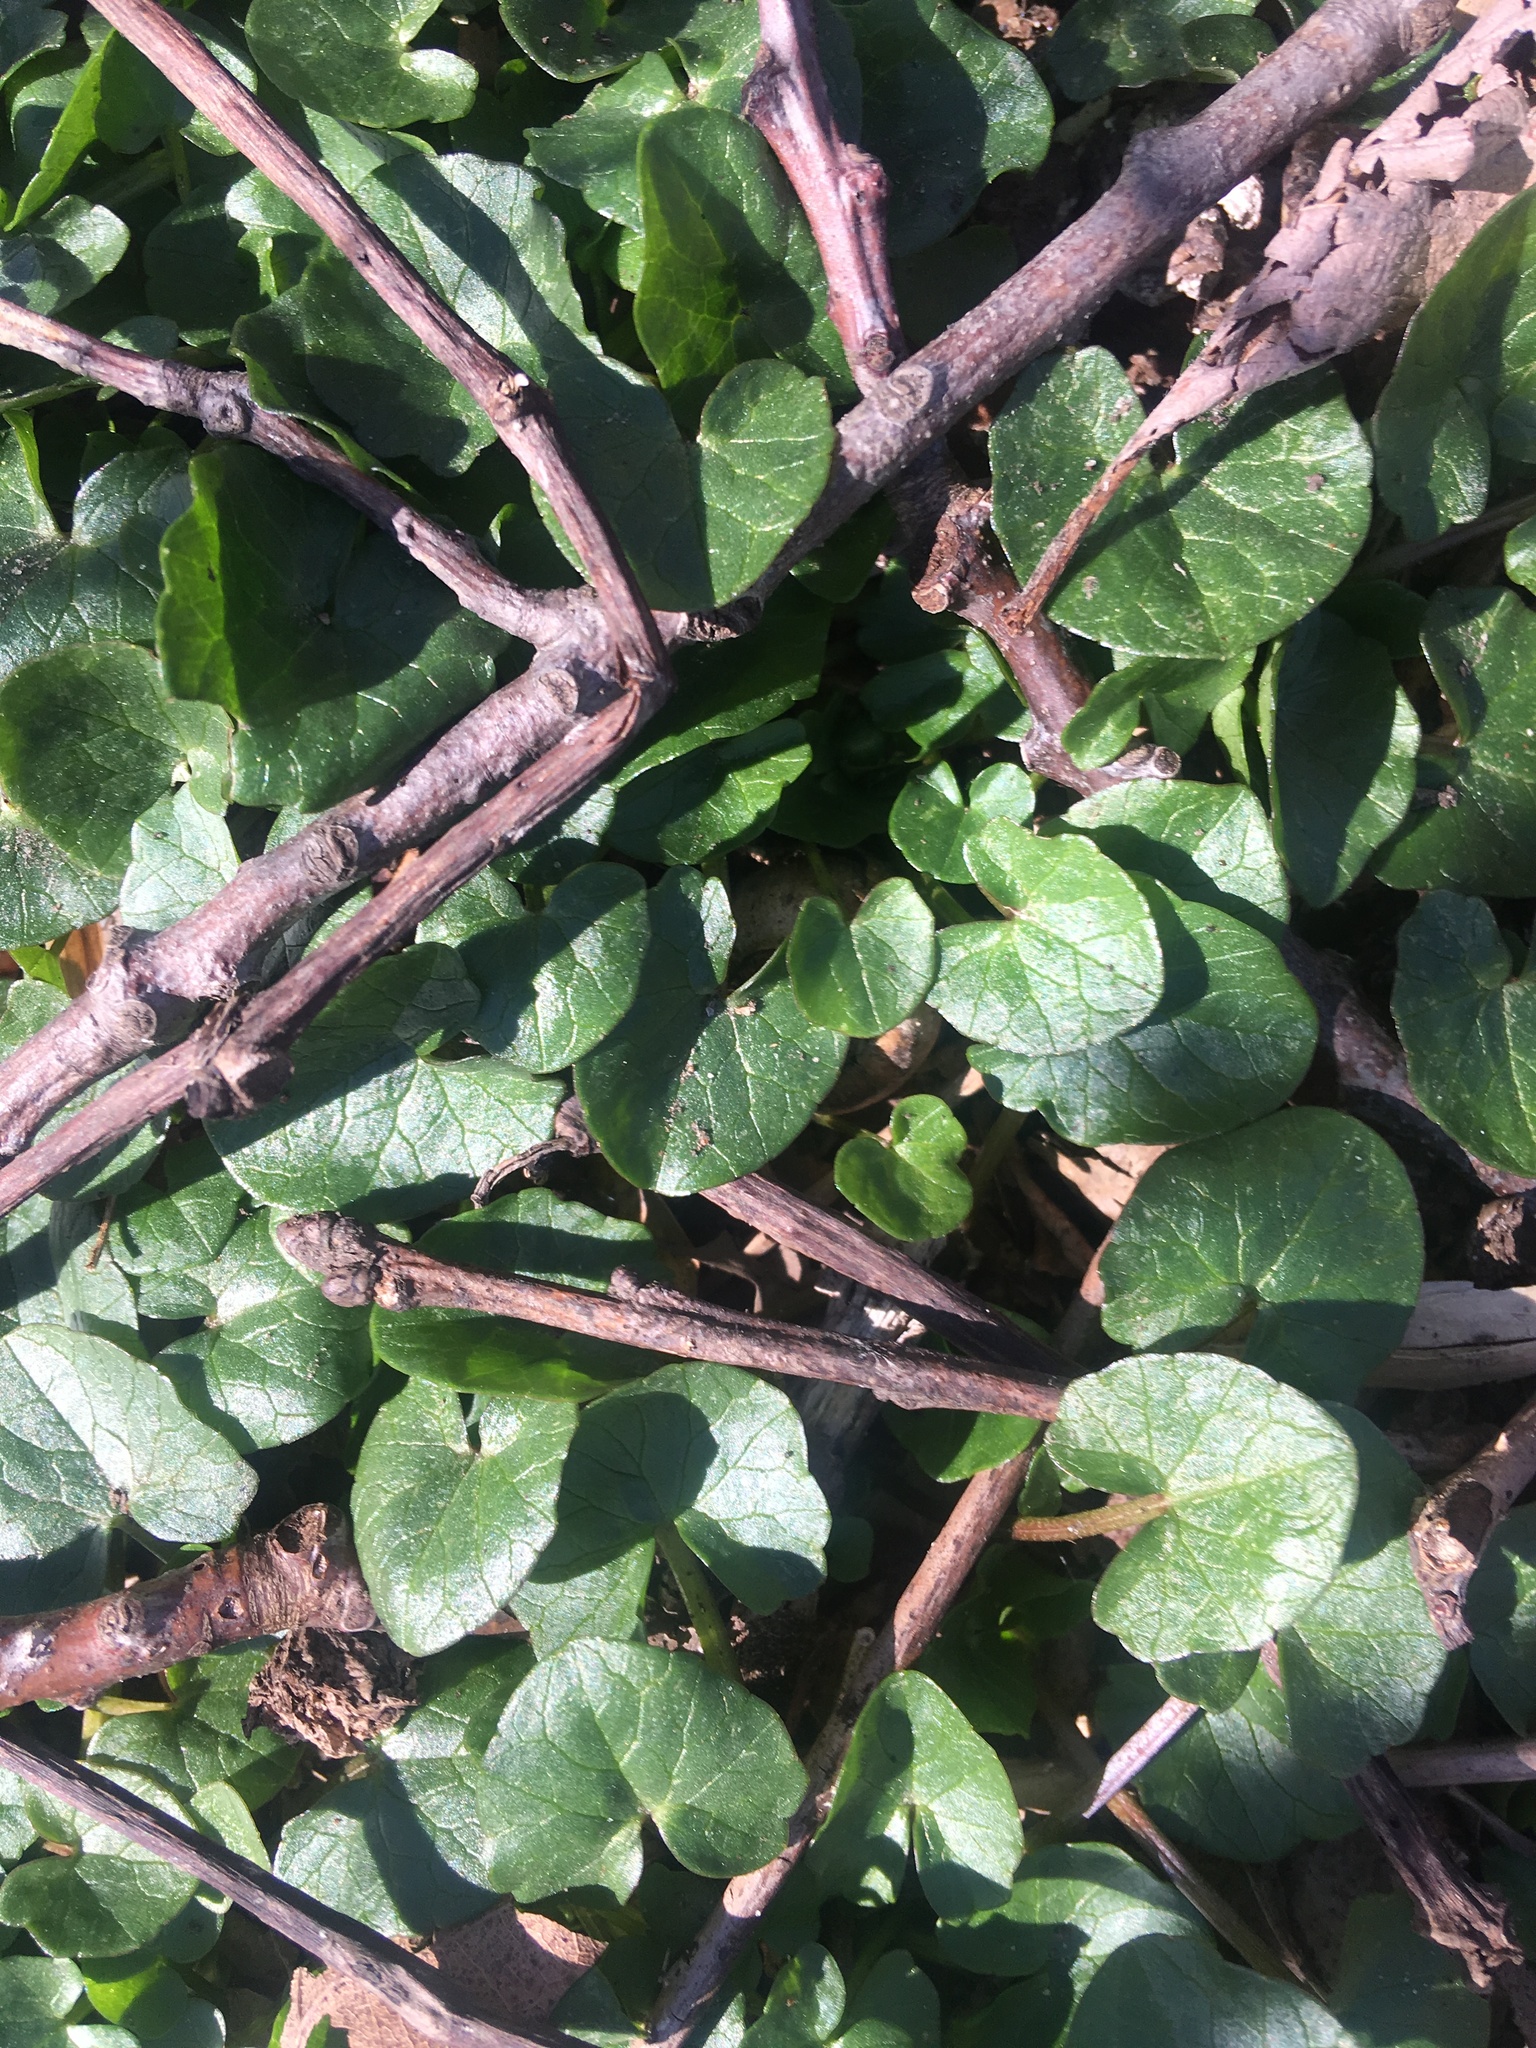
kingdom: Plantae
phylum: Tracheophyta
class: Magnoliopsida
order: Ranunculales
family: Ranunculaceae
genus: Ficaria
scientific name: Ficaria verna
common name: Lesser celandine
